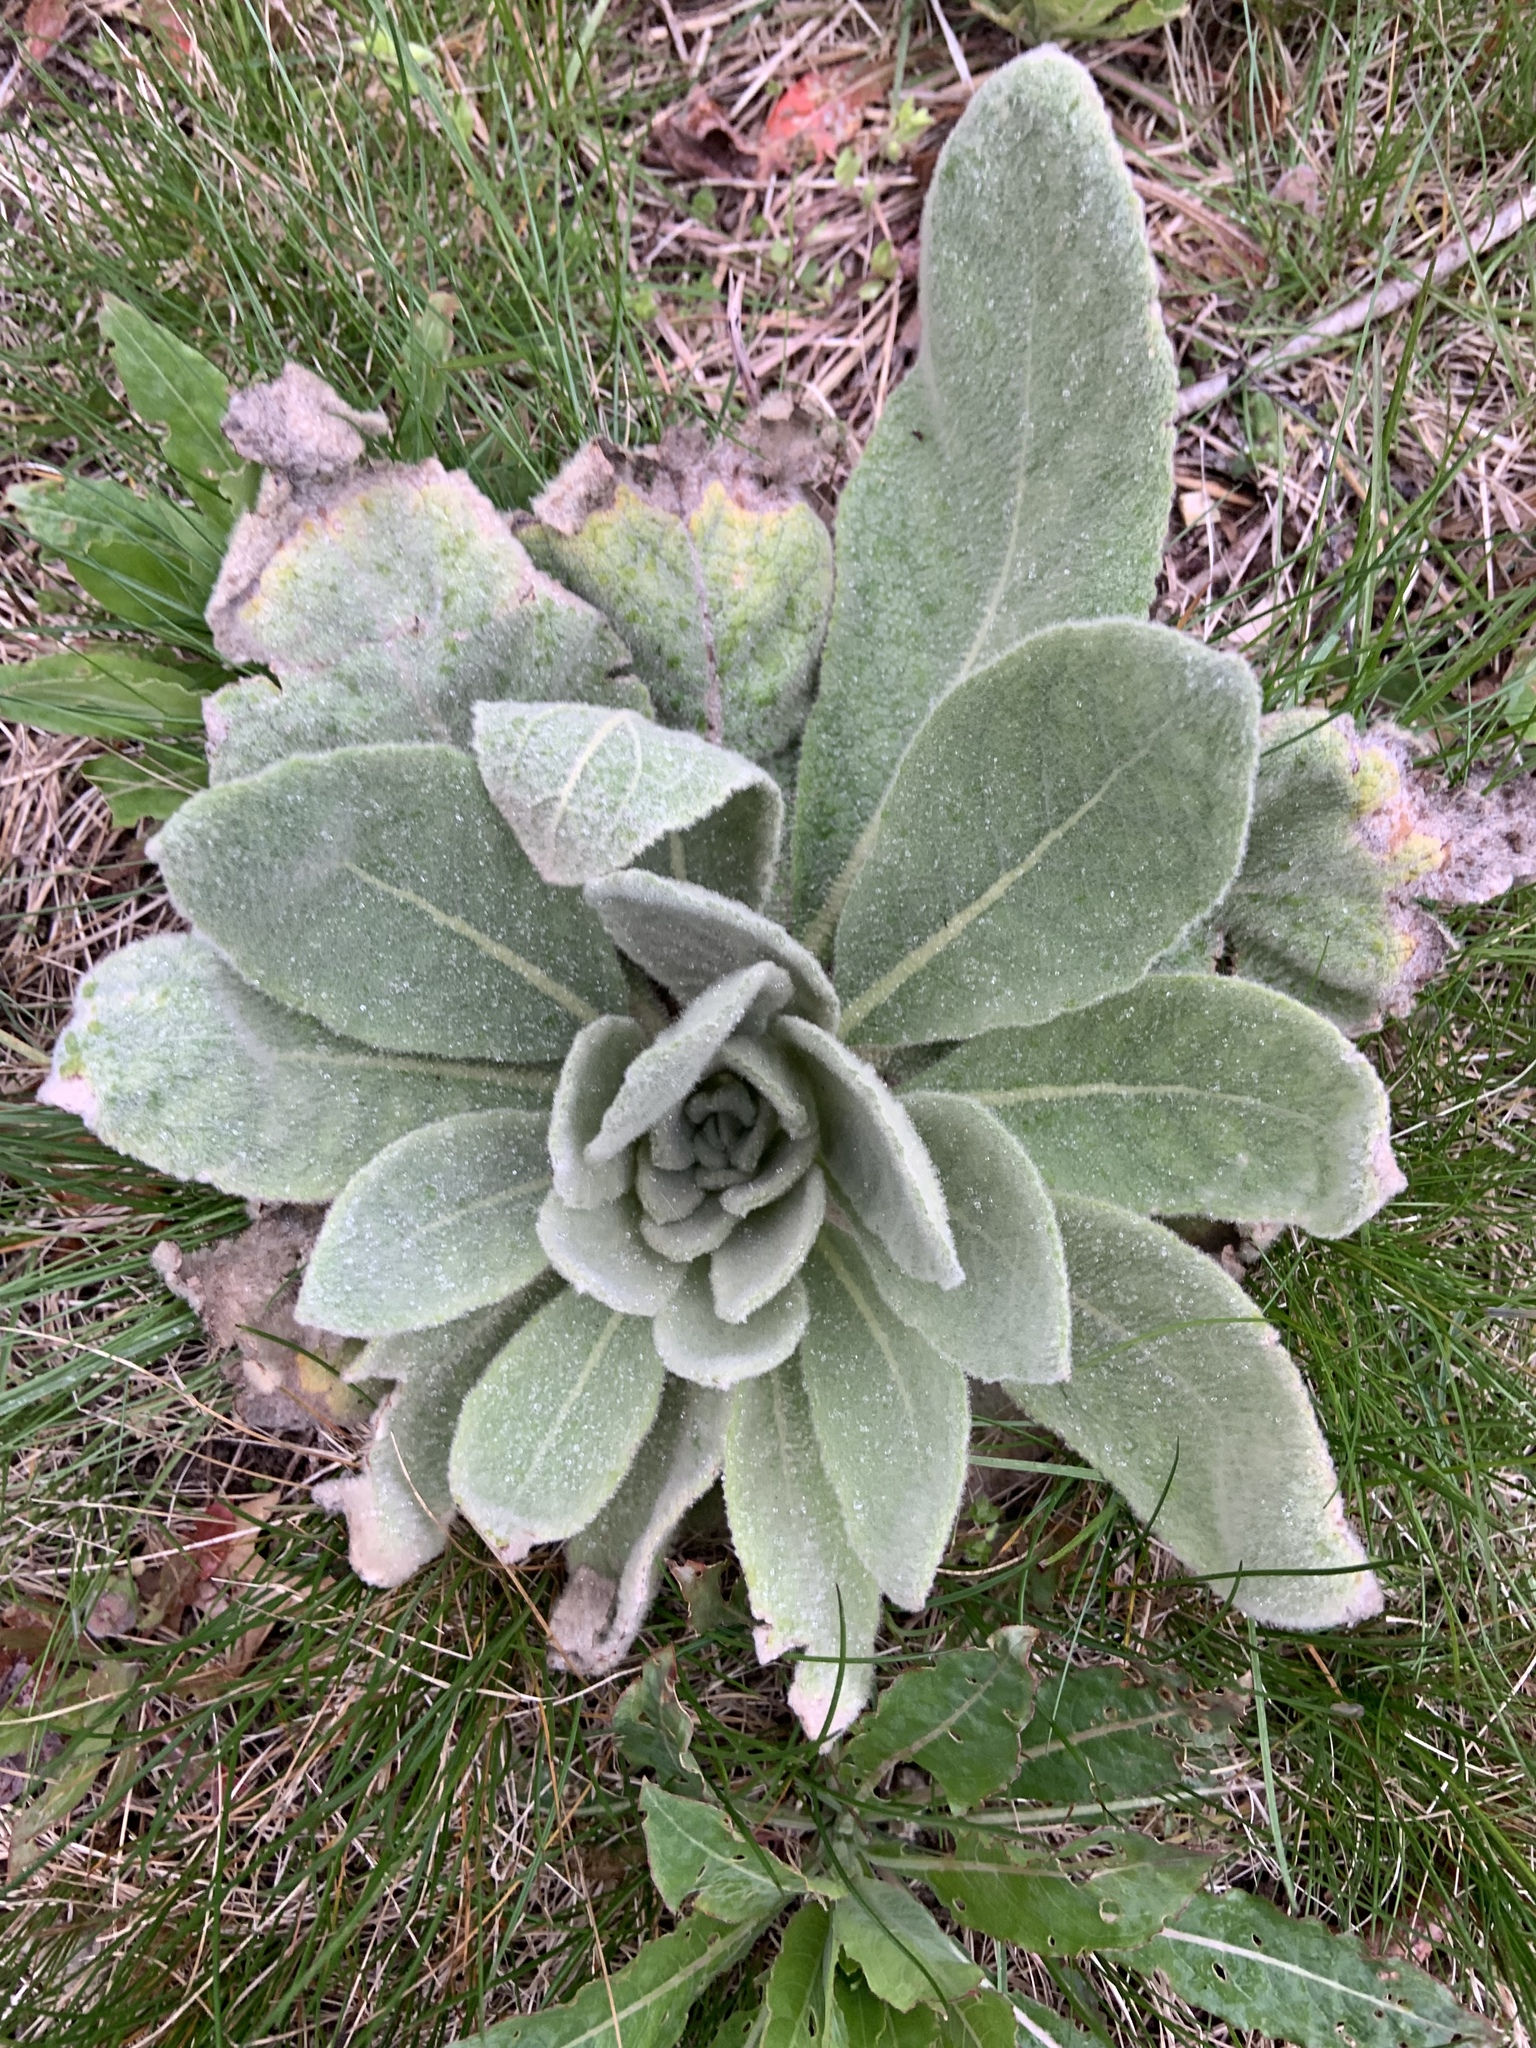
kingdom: Plantae
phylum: Tracheophyta
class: Magnoliopsida
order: Lamiales
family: Scrophulariaceae
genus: Verbascum
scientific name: Verbascum thapsus
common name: Common mullein
